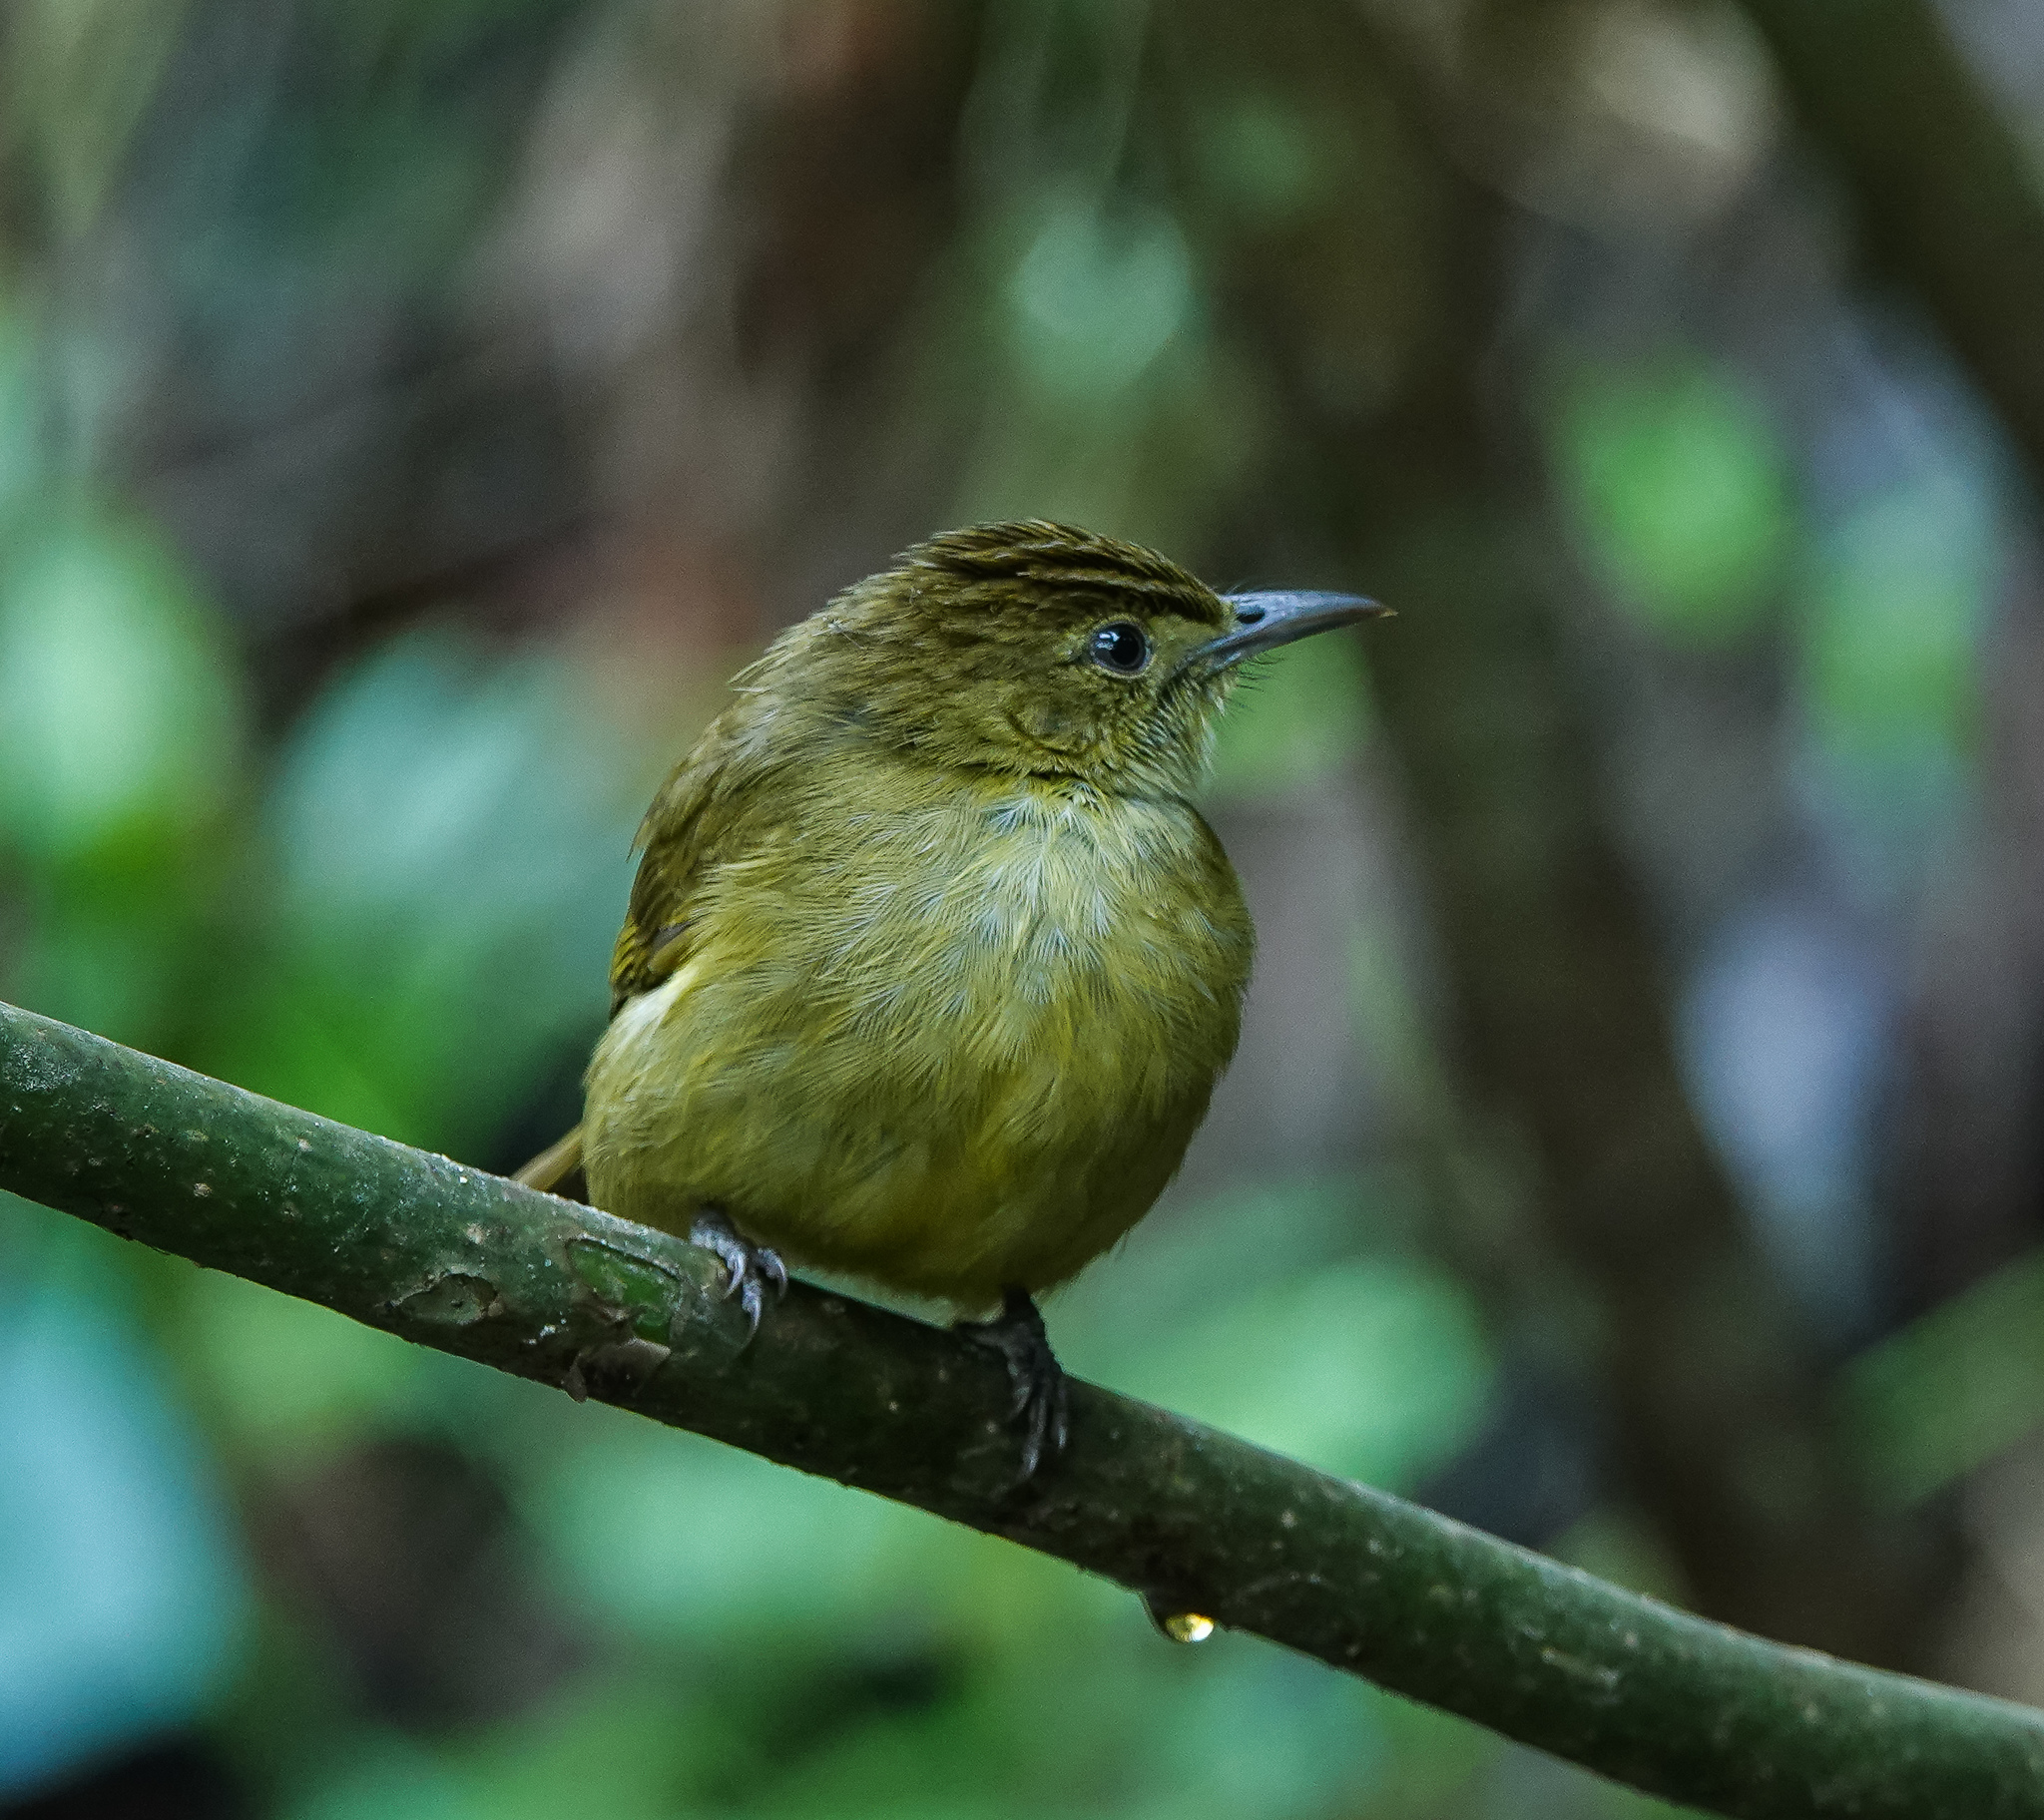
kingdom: Animalia
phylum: Chordata
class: Aves
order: Passeriformes
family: Pycnonotidae
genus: Iole
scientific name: Iole virescens
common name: Olive bulbul
